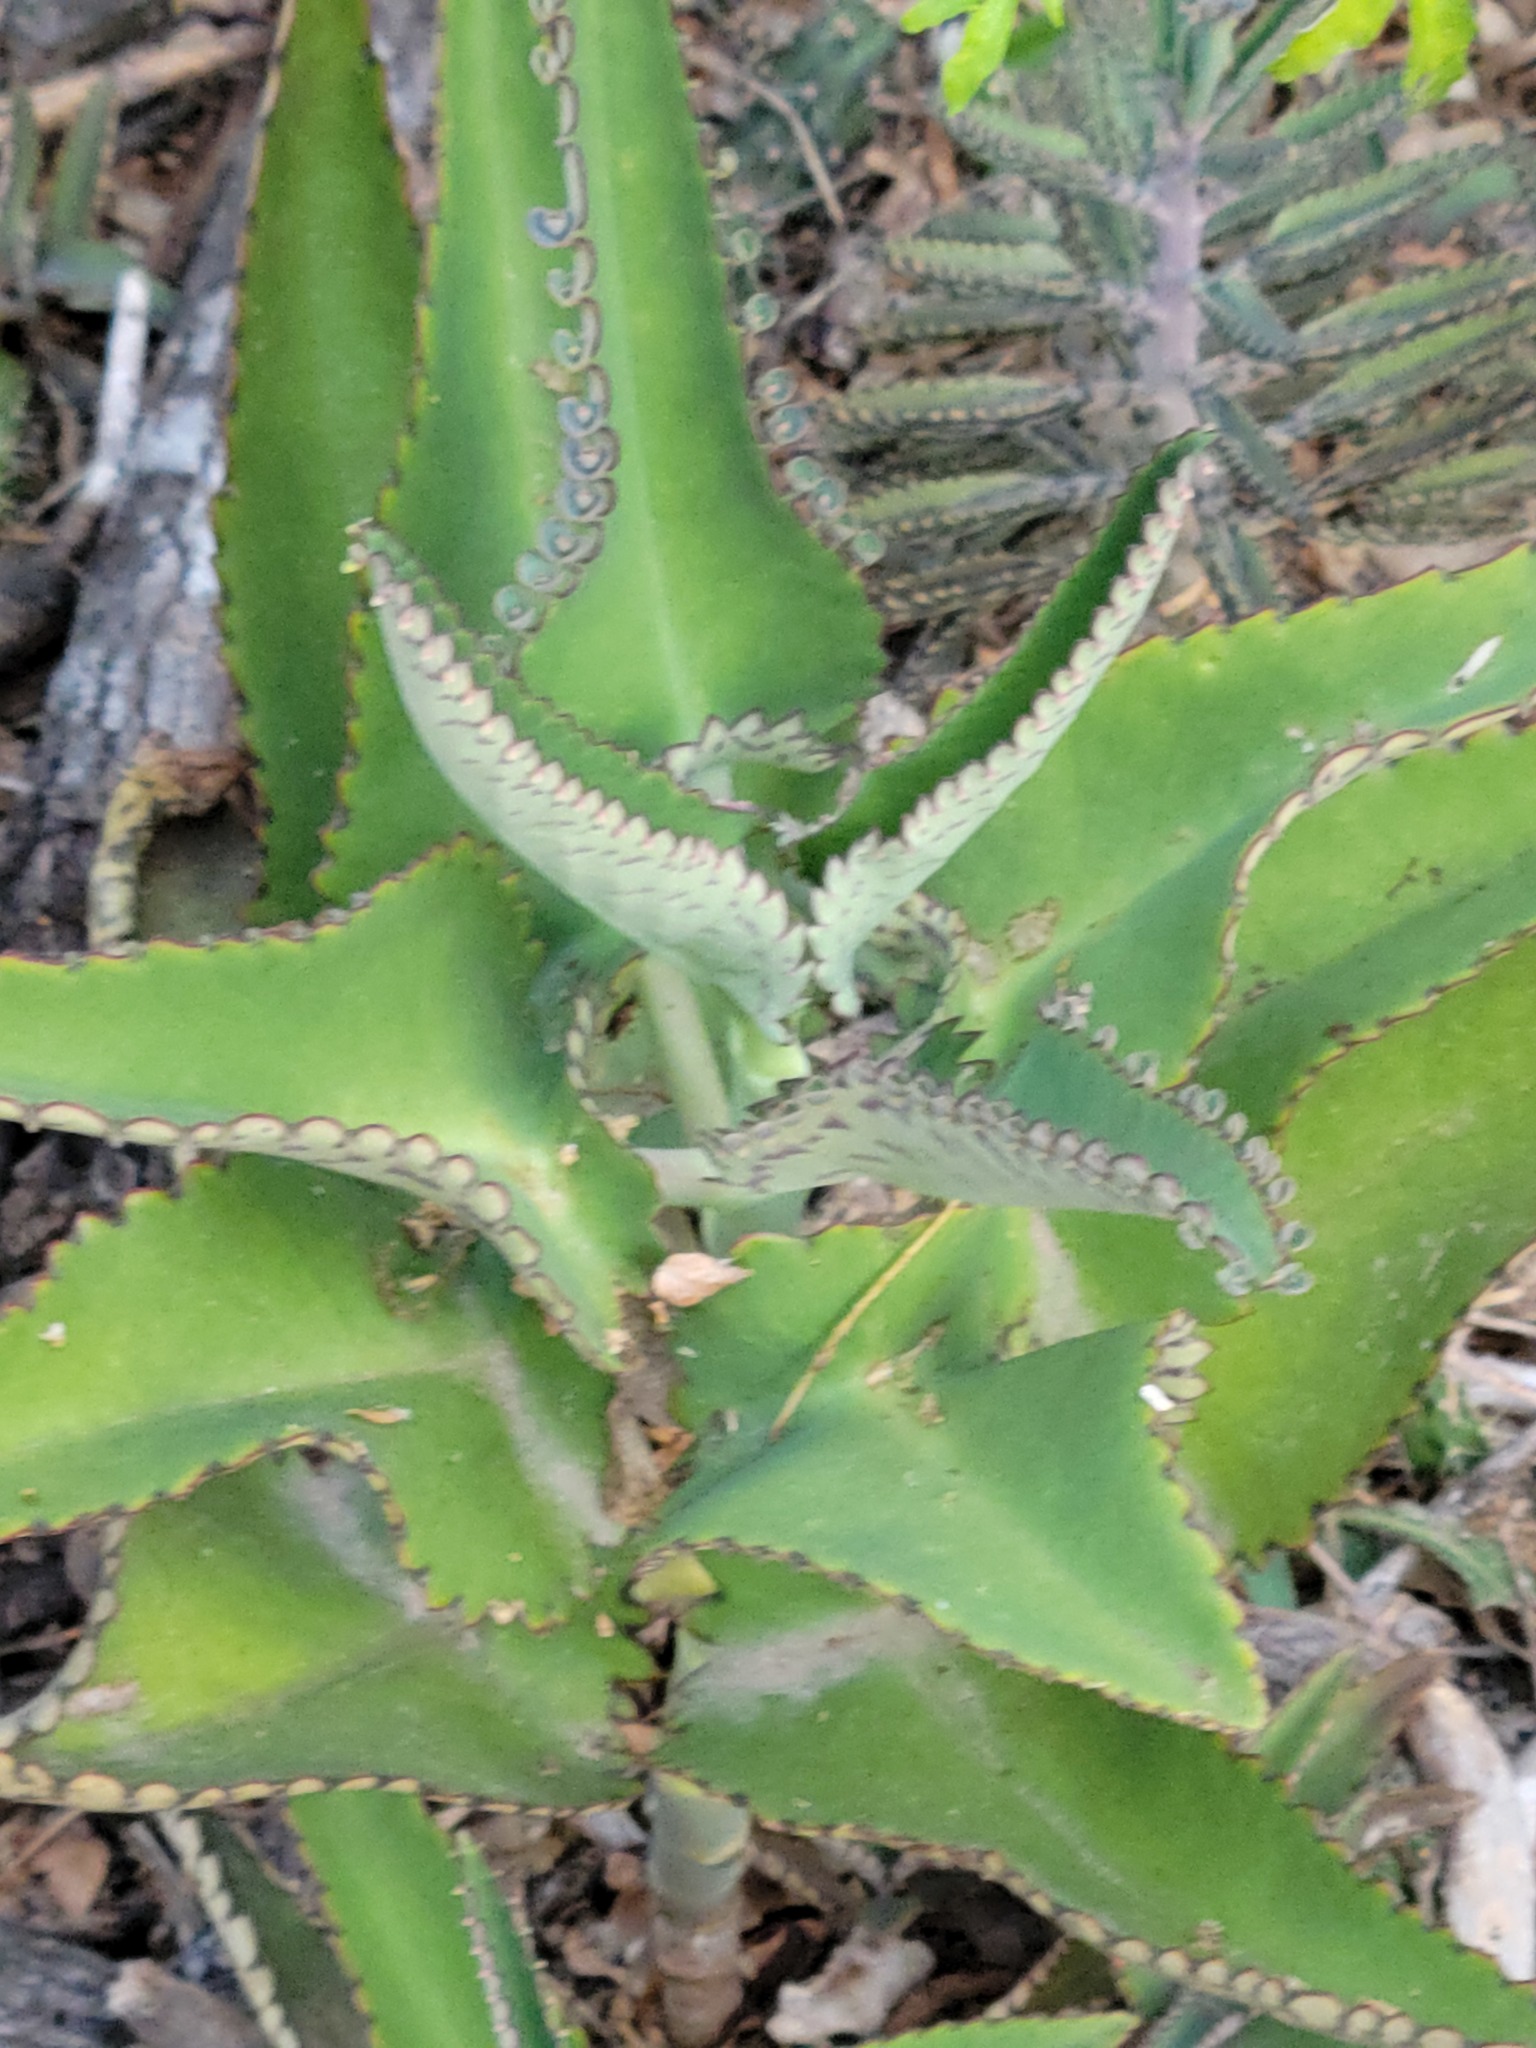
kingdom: Plantae
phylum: Tracheophyta
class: Magnoliopsida
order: Saxifragales
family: Crassulaceae
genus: Kalanchoe
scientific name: Kalanchoe daigremontiana
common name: Devil's backbone
